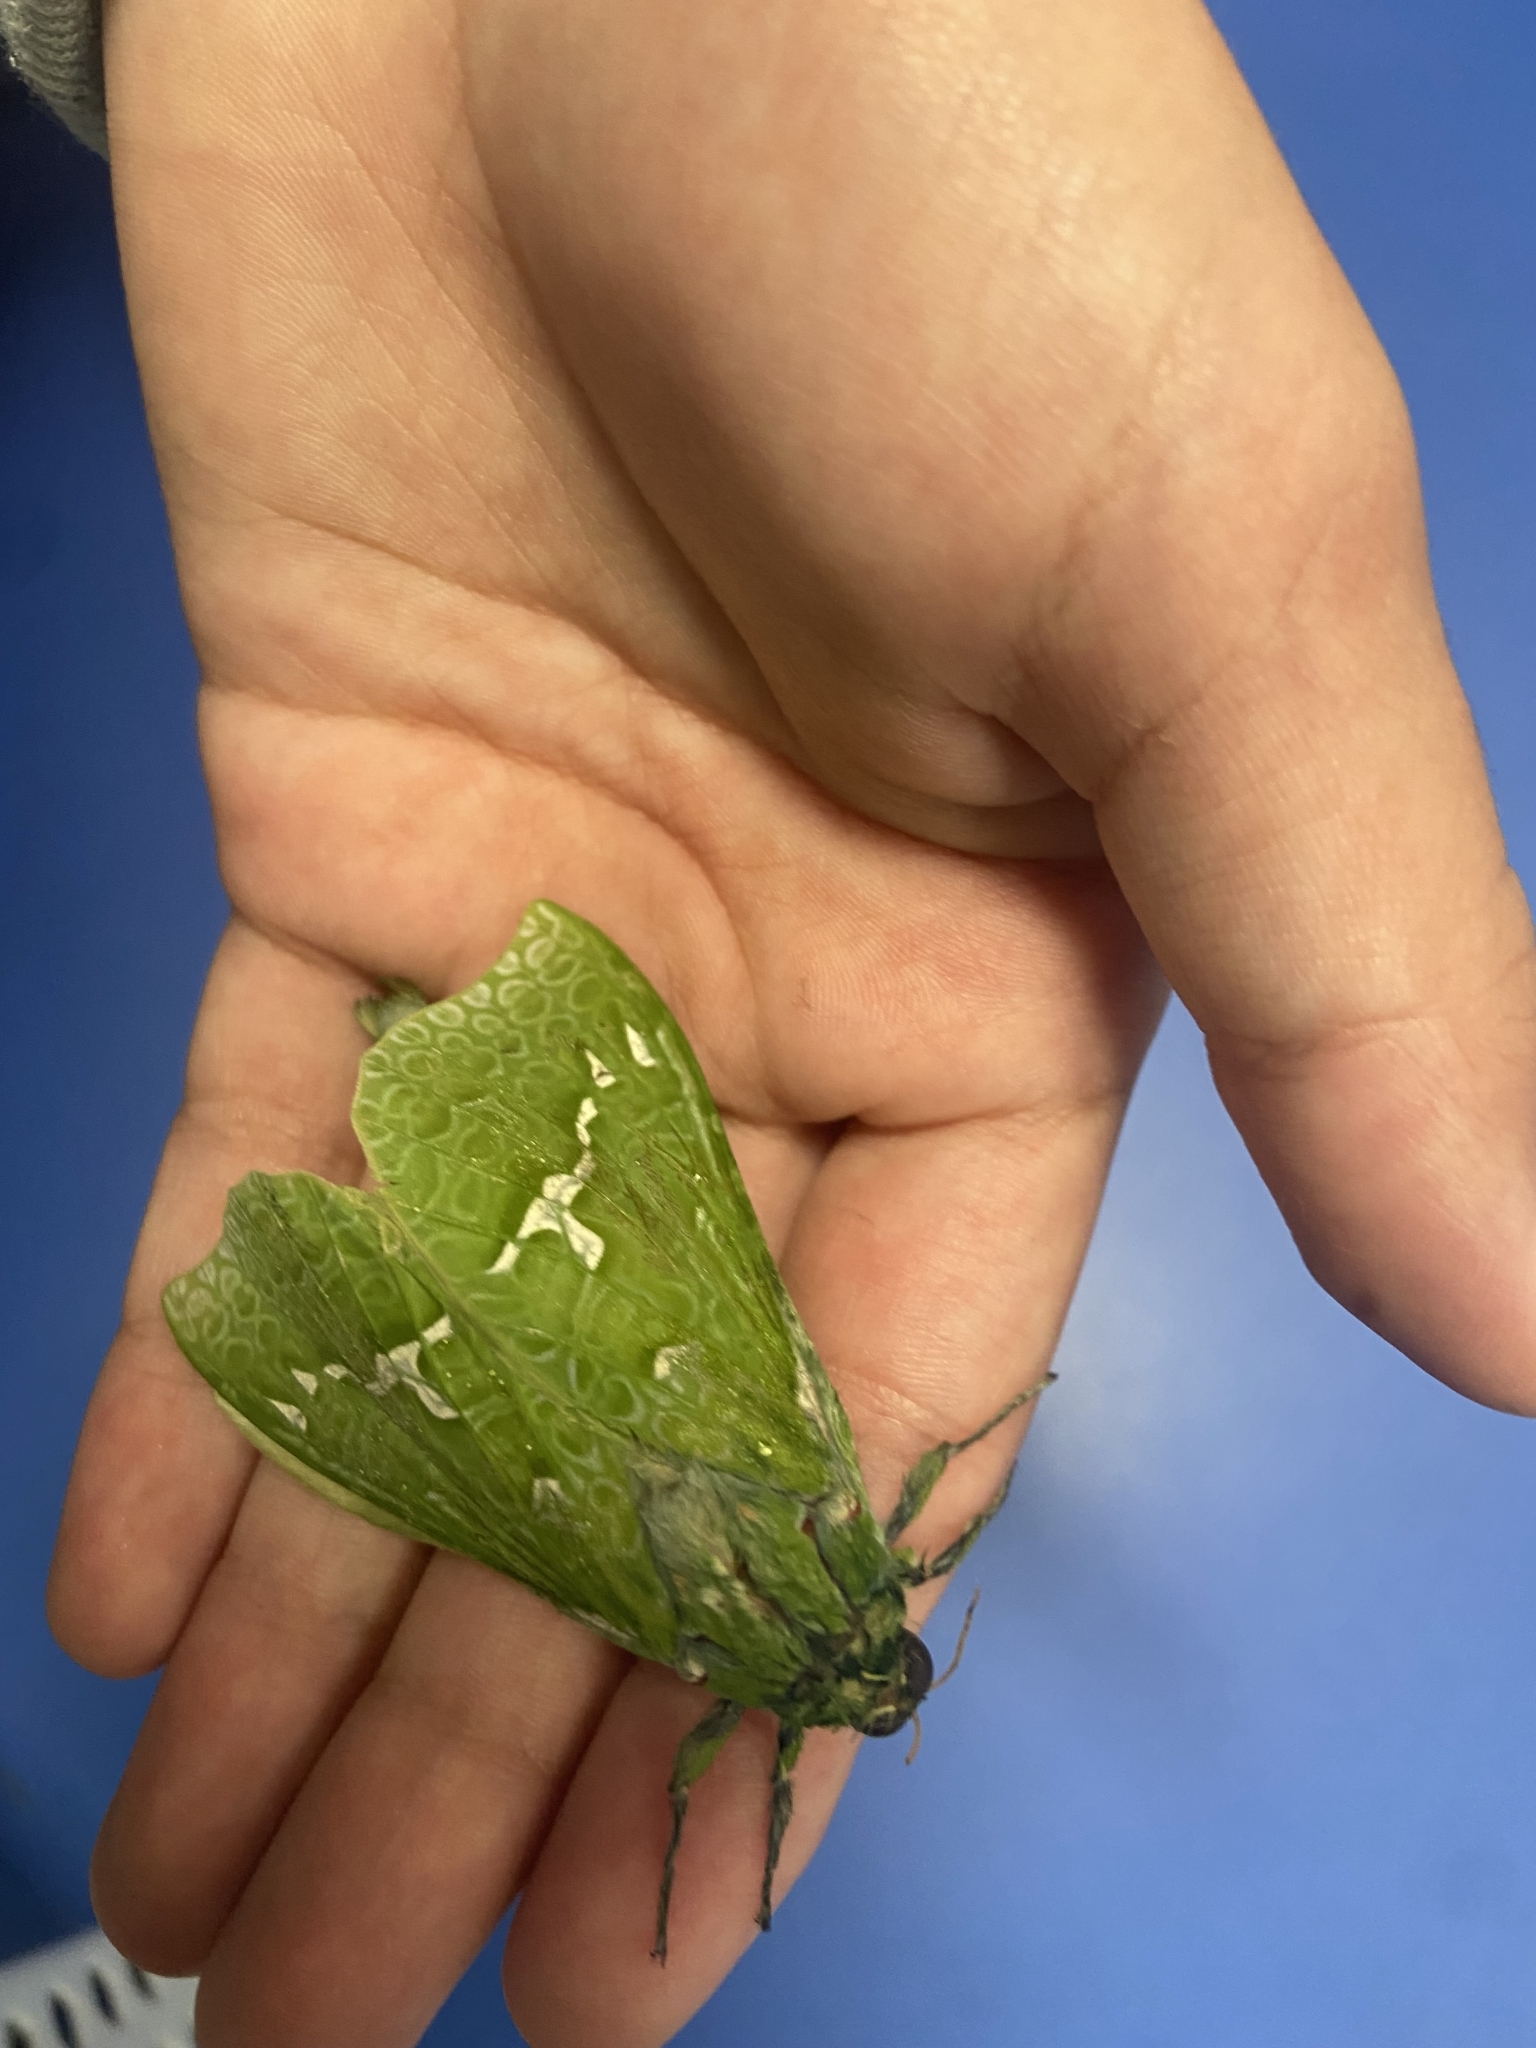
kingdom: Animalia
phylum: Arthropoda
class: Insecta
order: Lepidoptera
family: Hepialidae
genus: Aenetus
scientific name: Aenetus virescens
